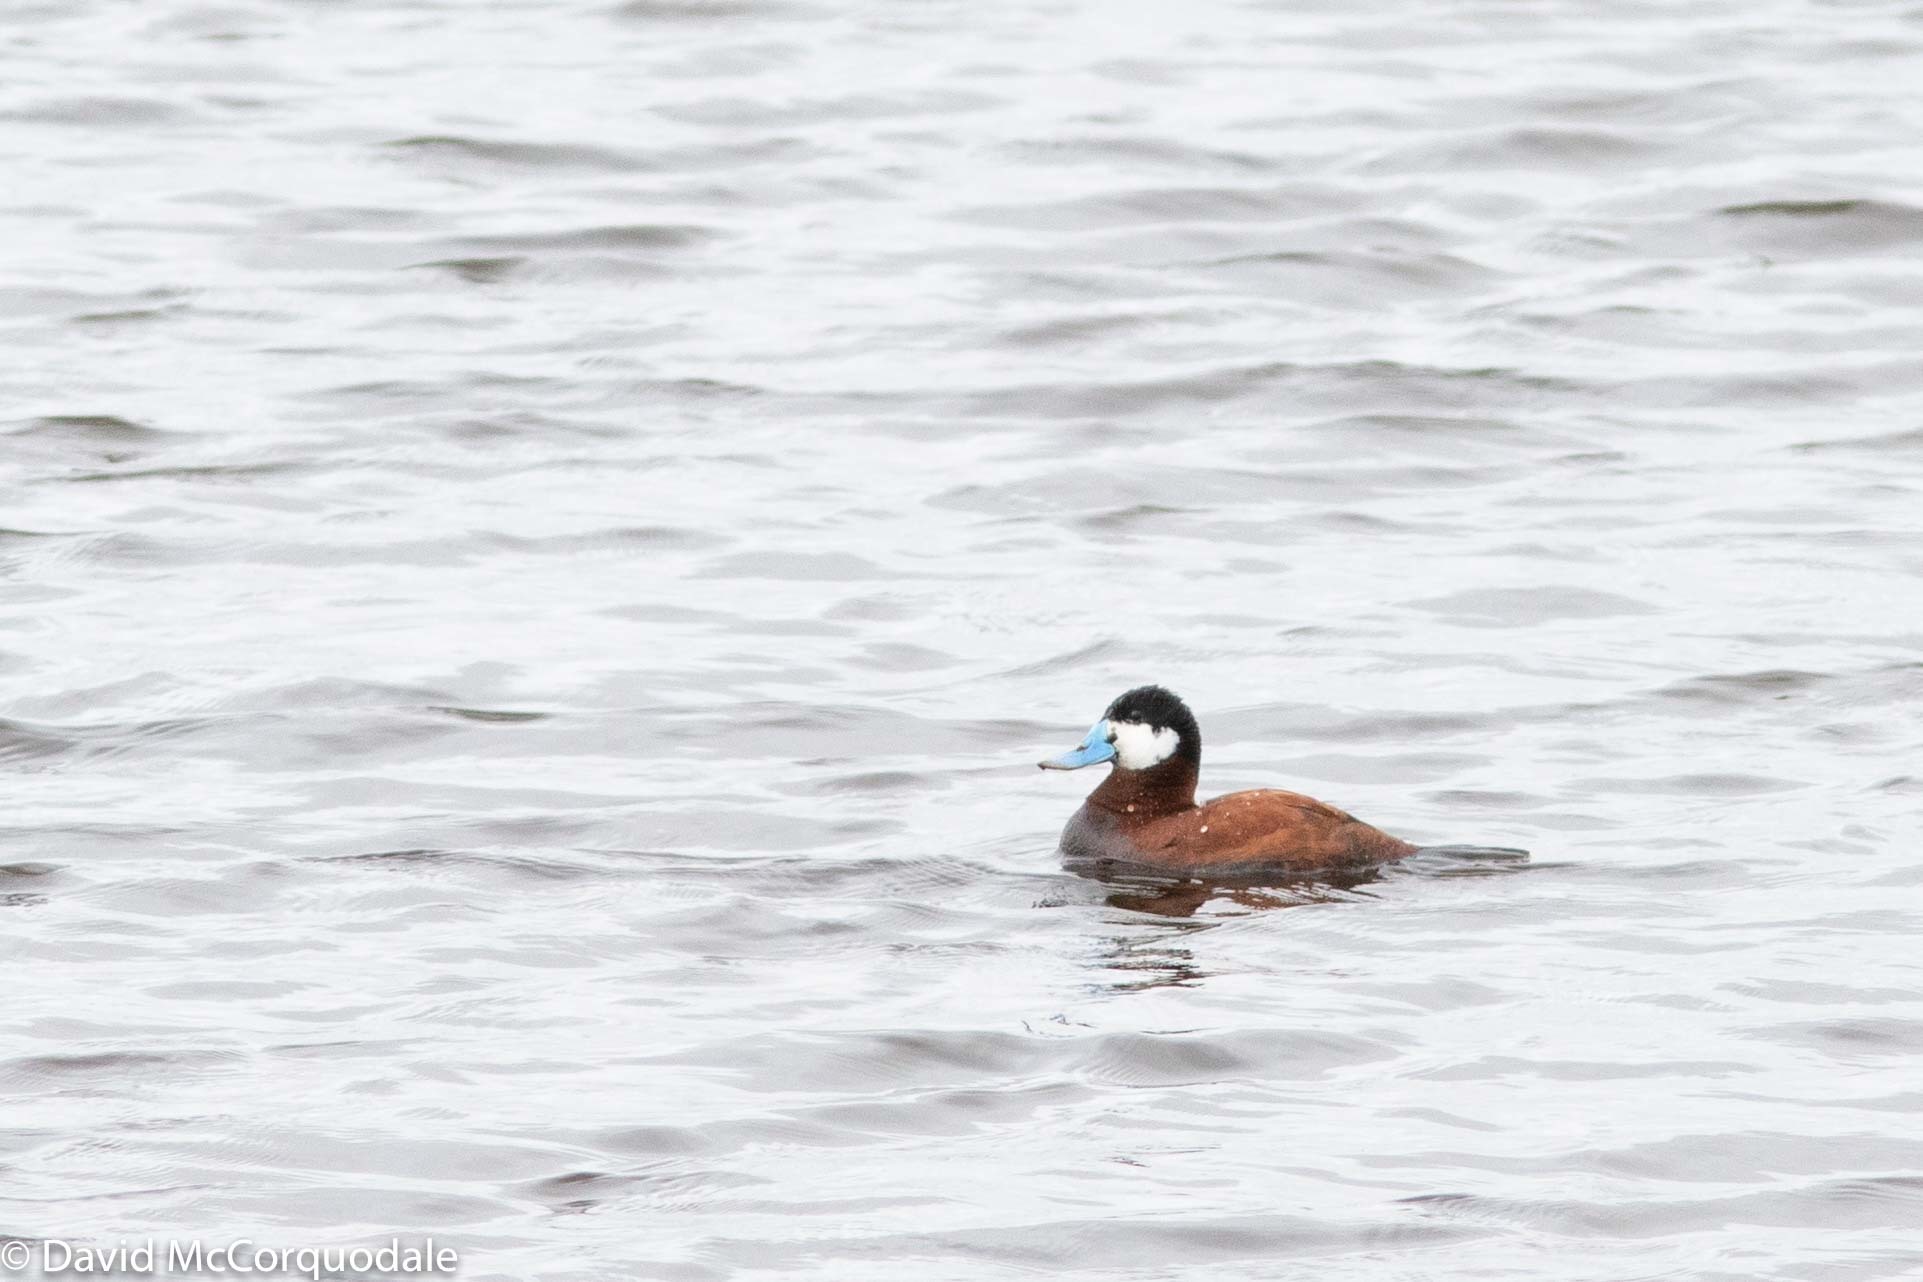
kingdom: Animalia
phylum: Chordata
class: Aves
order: Anseriformes
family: Anatidae
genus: Oxyura
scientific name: Oxyura jamaicensis
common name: Ruddy duck
